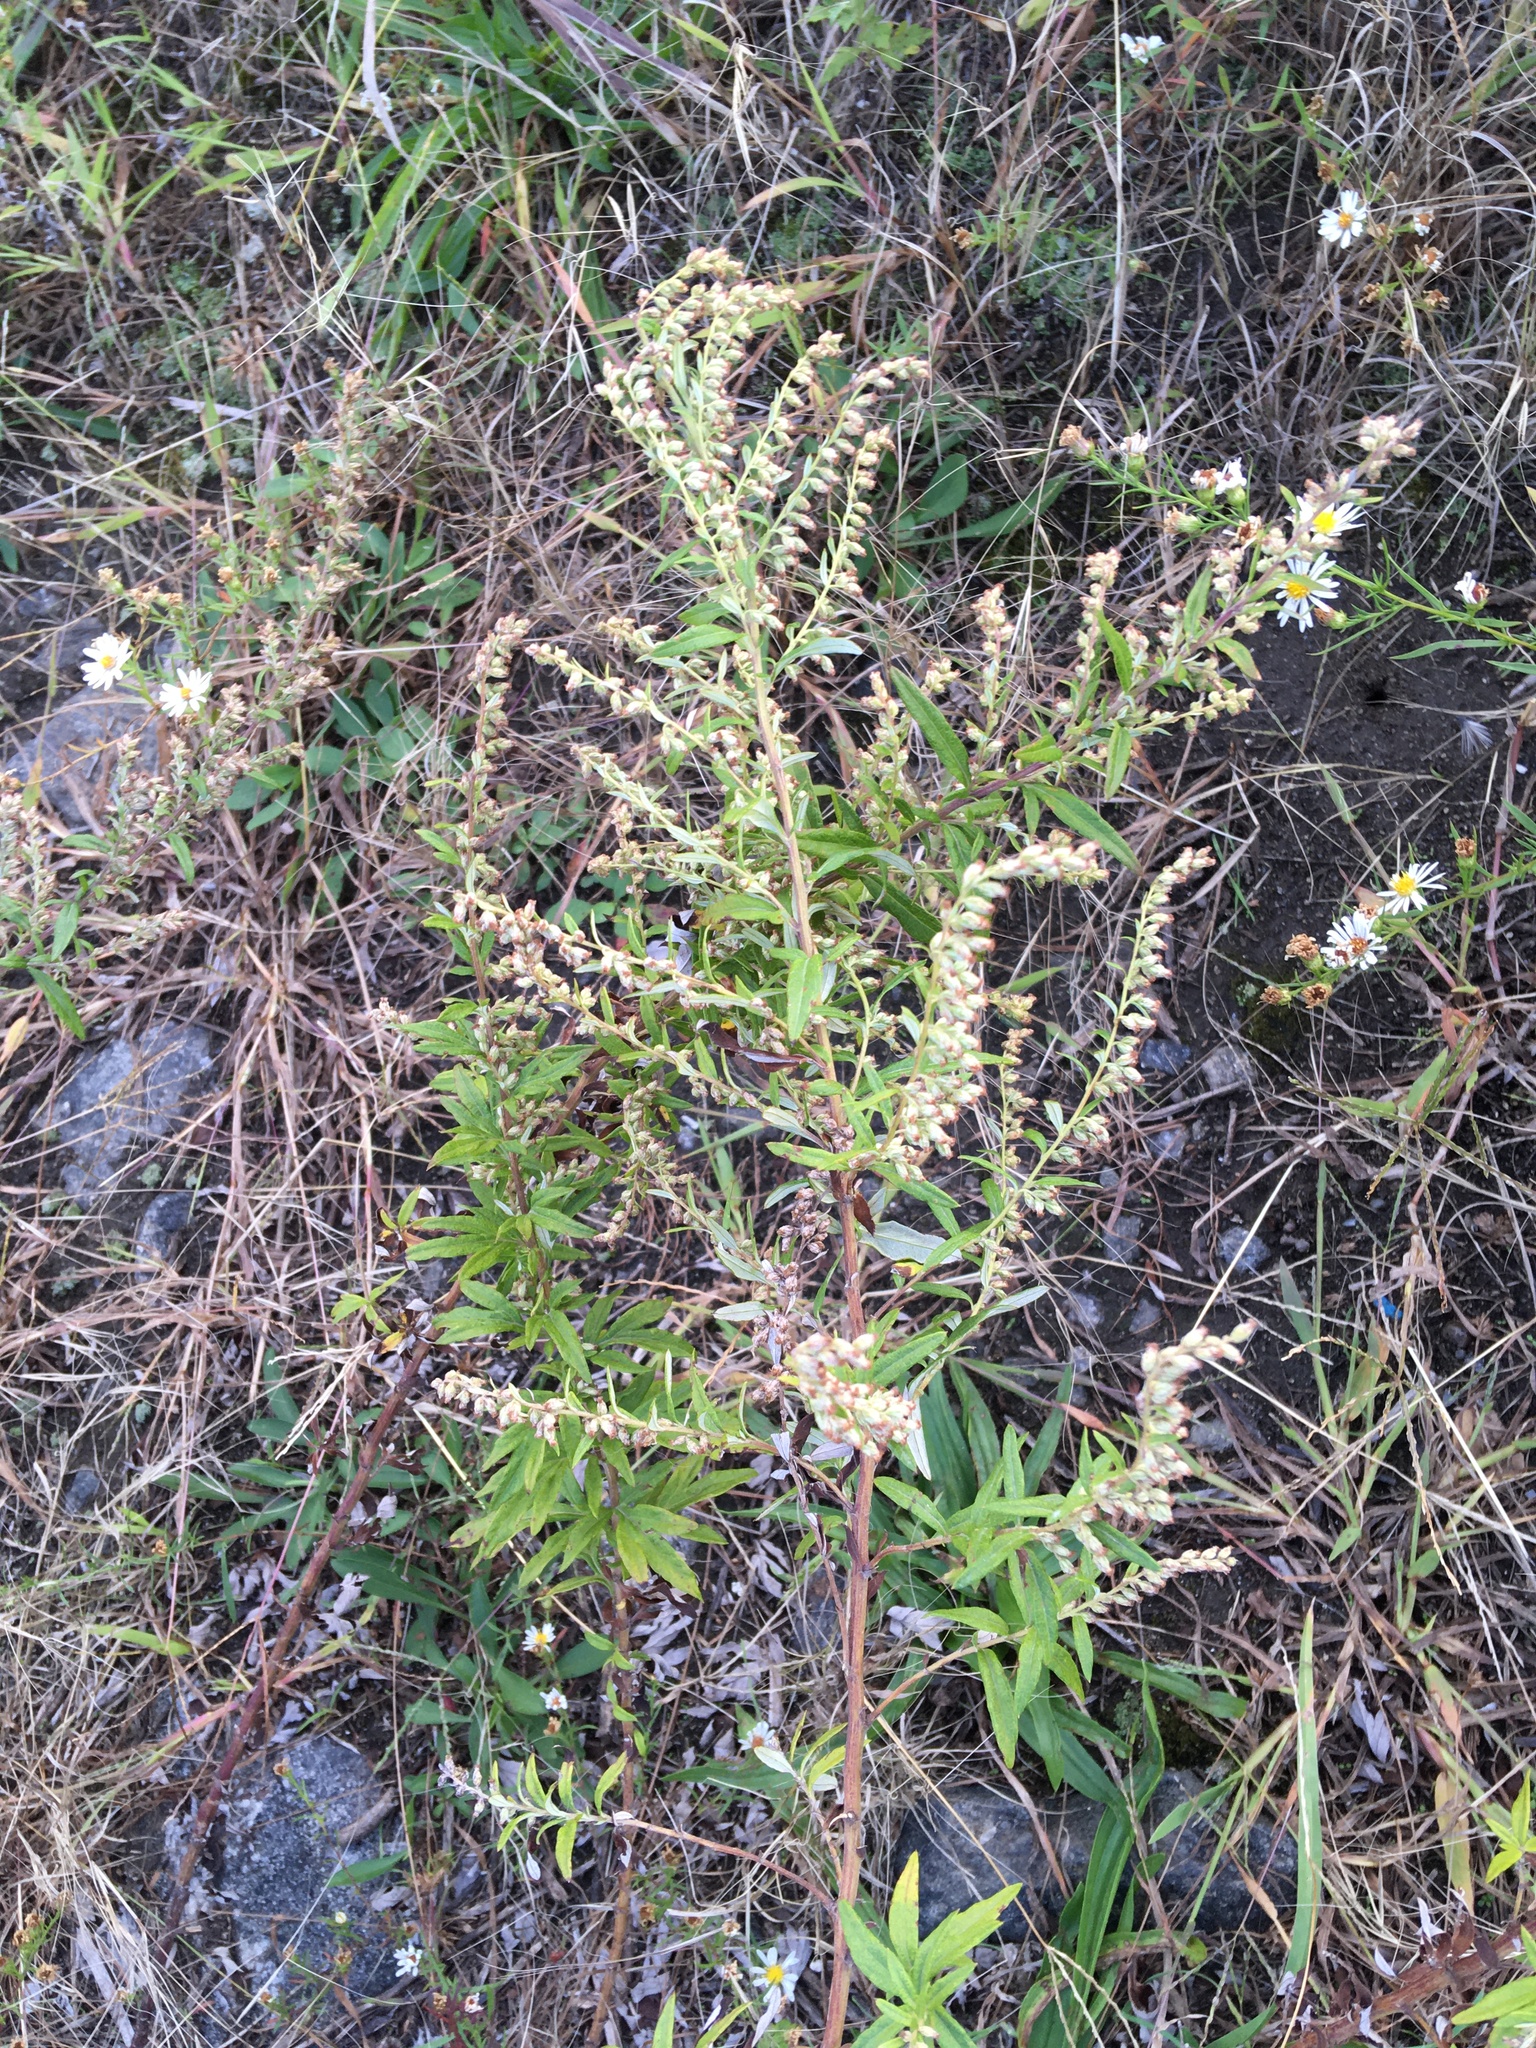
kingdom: Plantae
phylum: Tracheophyta
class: Magnoliopsida
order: Asterales
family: Asteraceae
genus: Artemisia
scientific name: Artemisia vulgaris
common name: Mugwort
